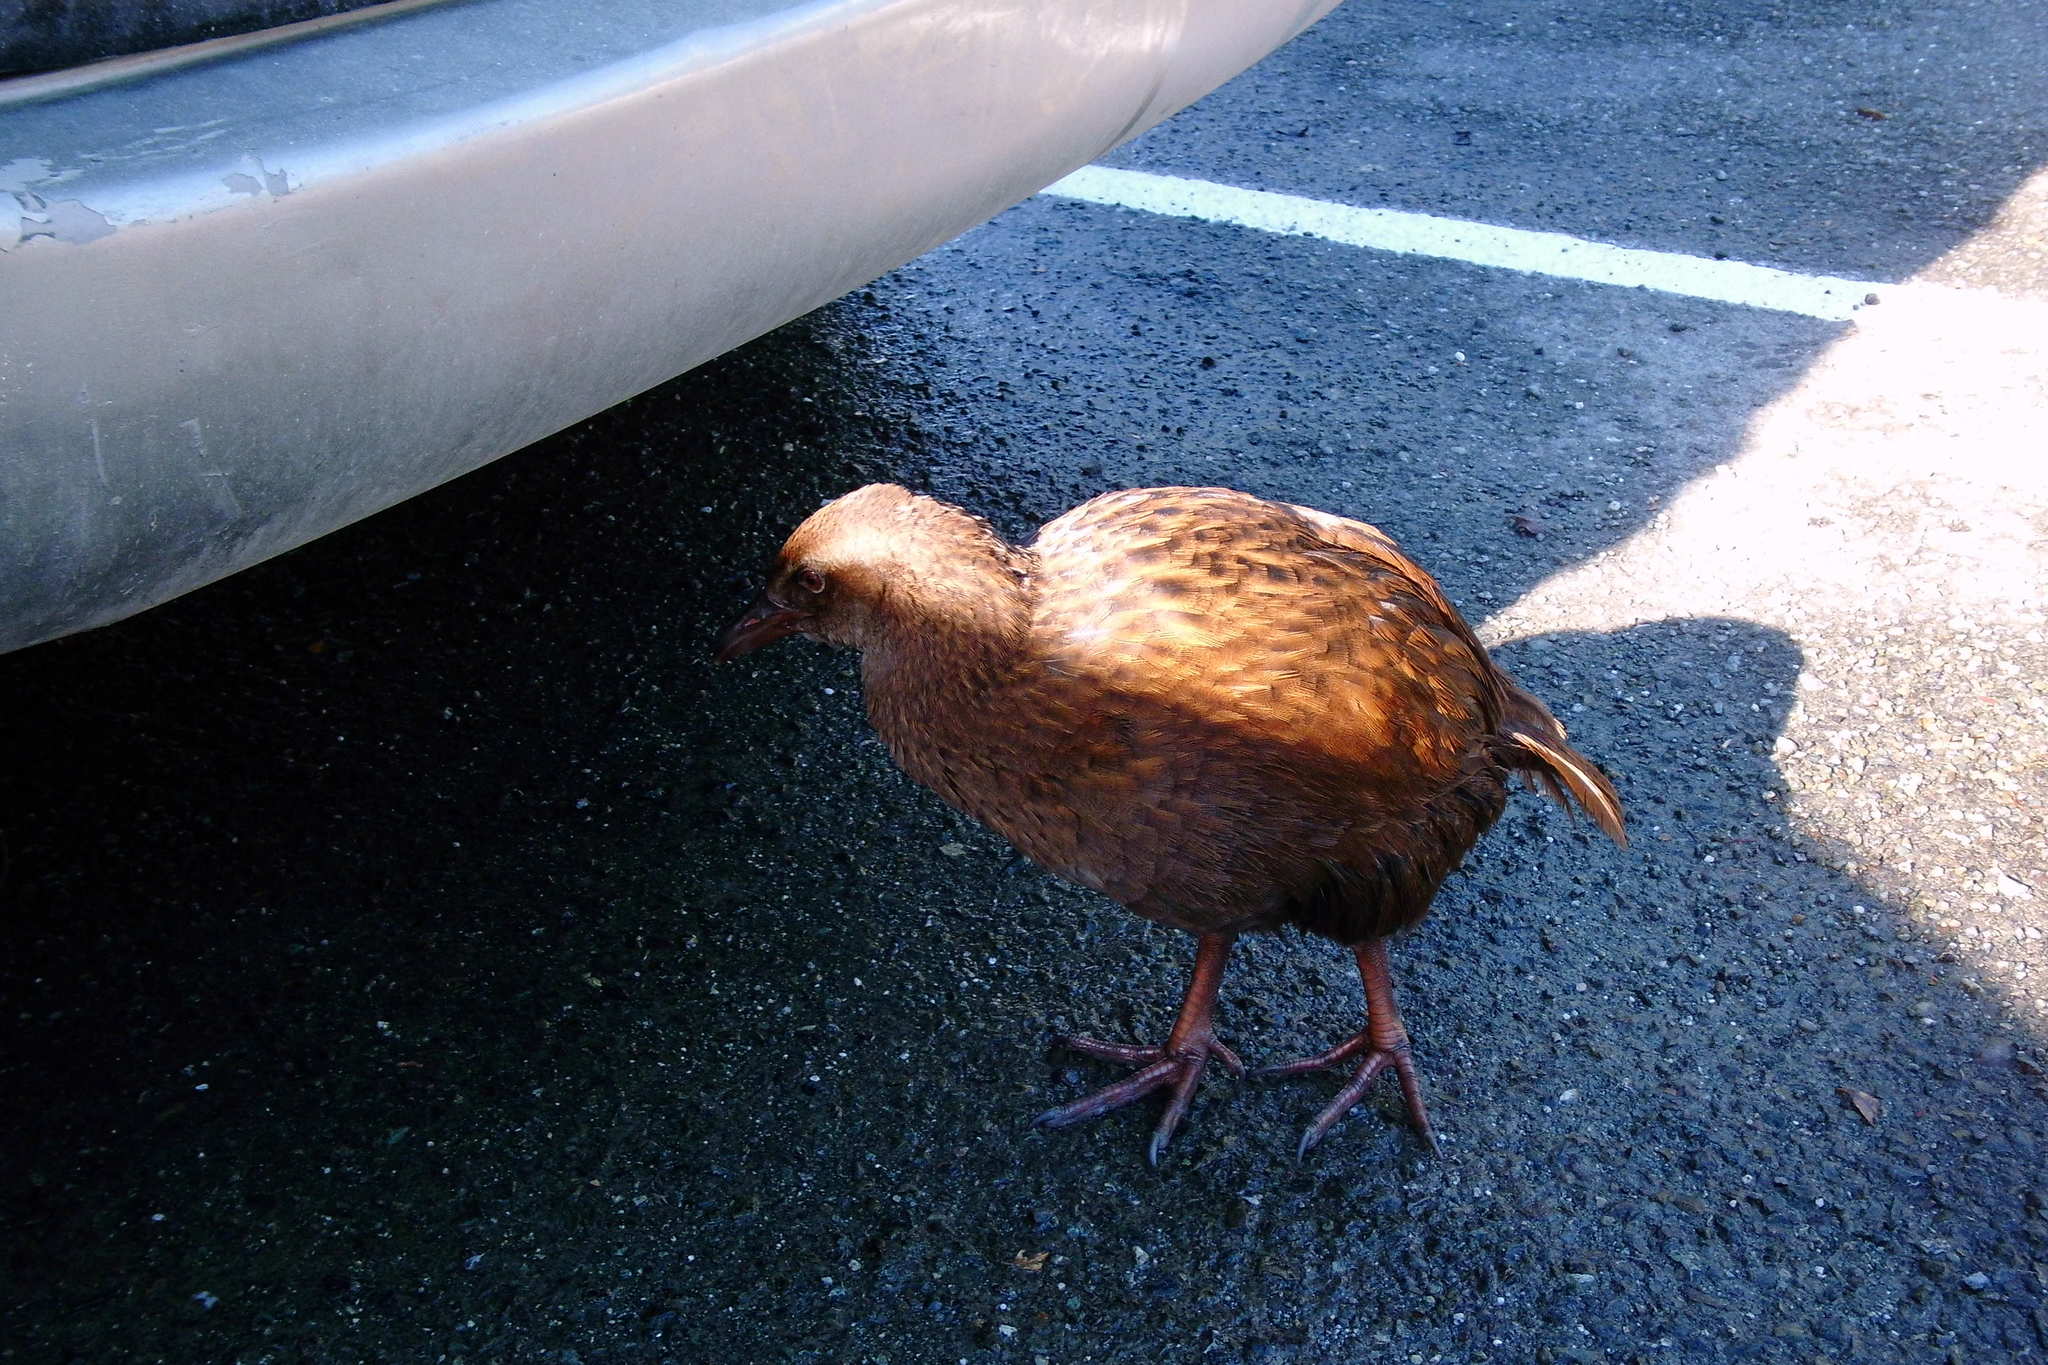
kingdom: Animalia
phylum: Chordata
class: Aves
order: Gruiformes
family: Rallidae
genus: Gallirallus
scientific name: Gallirallus australis
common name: Weka
